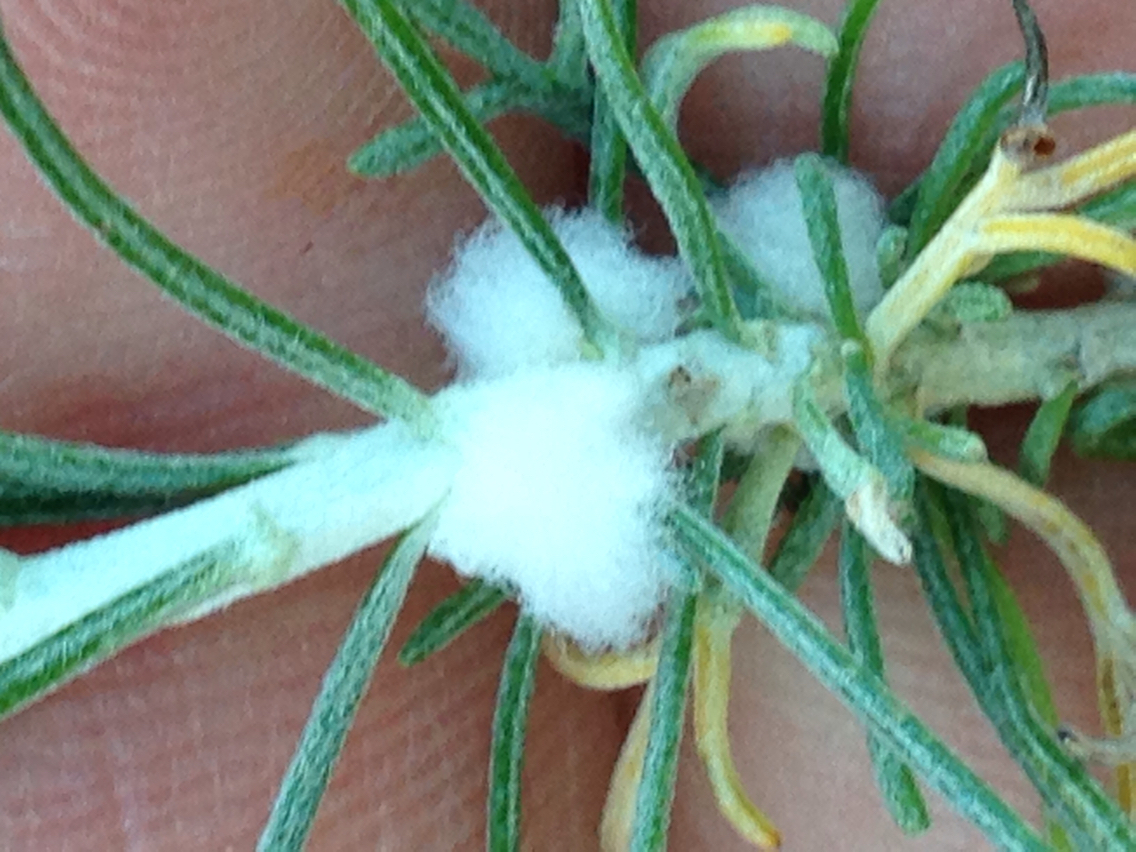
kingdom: Animalia
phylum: Arthropoda
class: Insecta
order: Diptera
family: Cecidomyiidae
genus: Rhopalomyia
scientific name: Rhopalomyia floccosa
